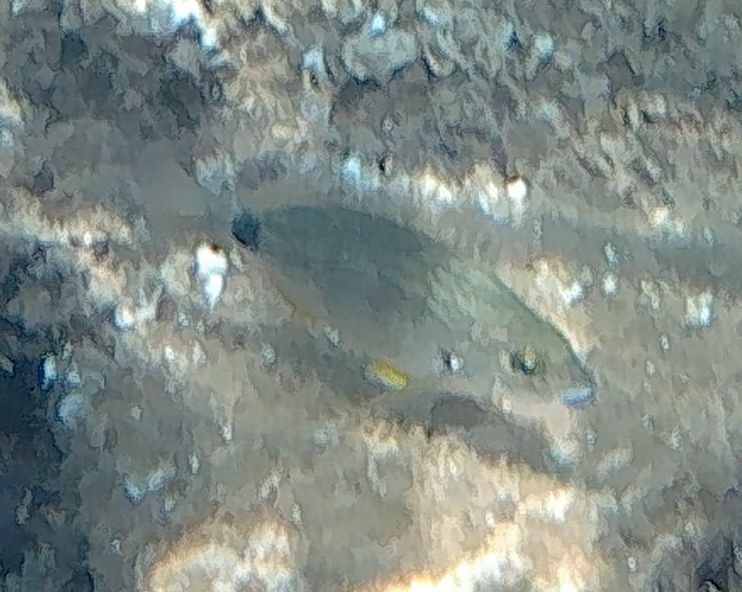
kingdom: Animalia
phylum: Chordata
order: Perciformes
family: Sparidae
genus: Diplodus
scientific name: Diplodus annularis
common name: Annular seabream
